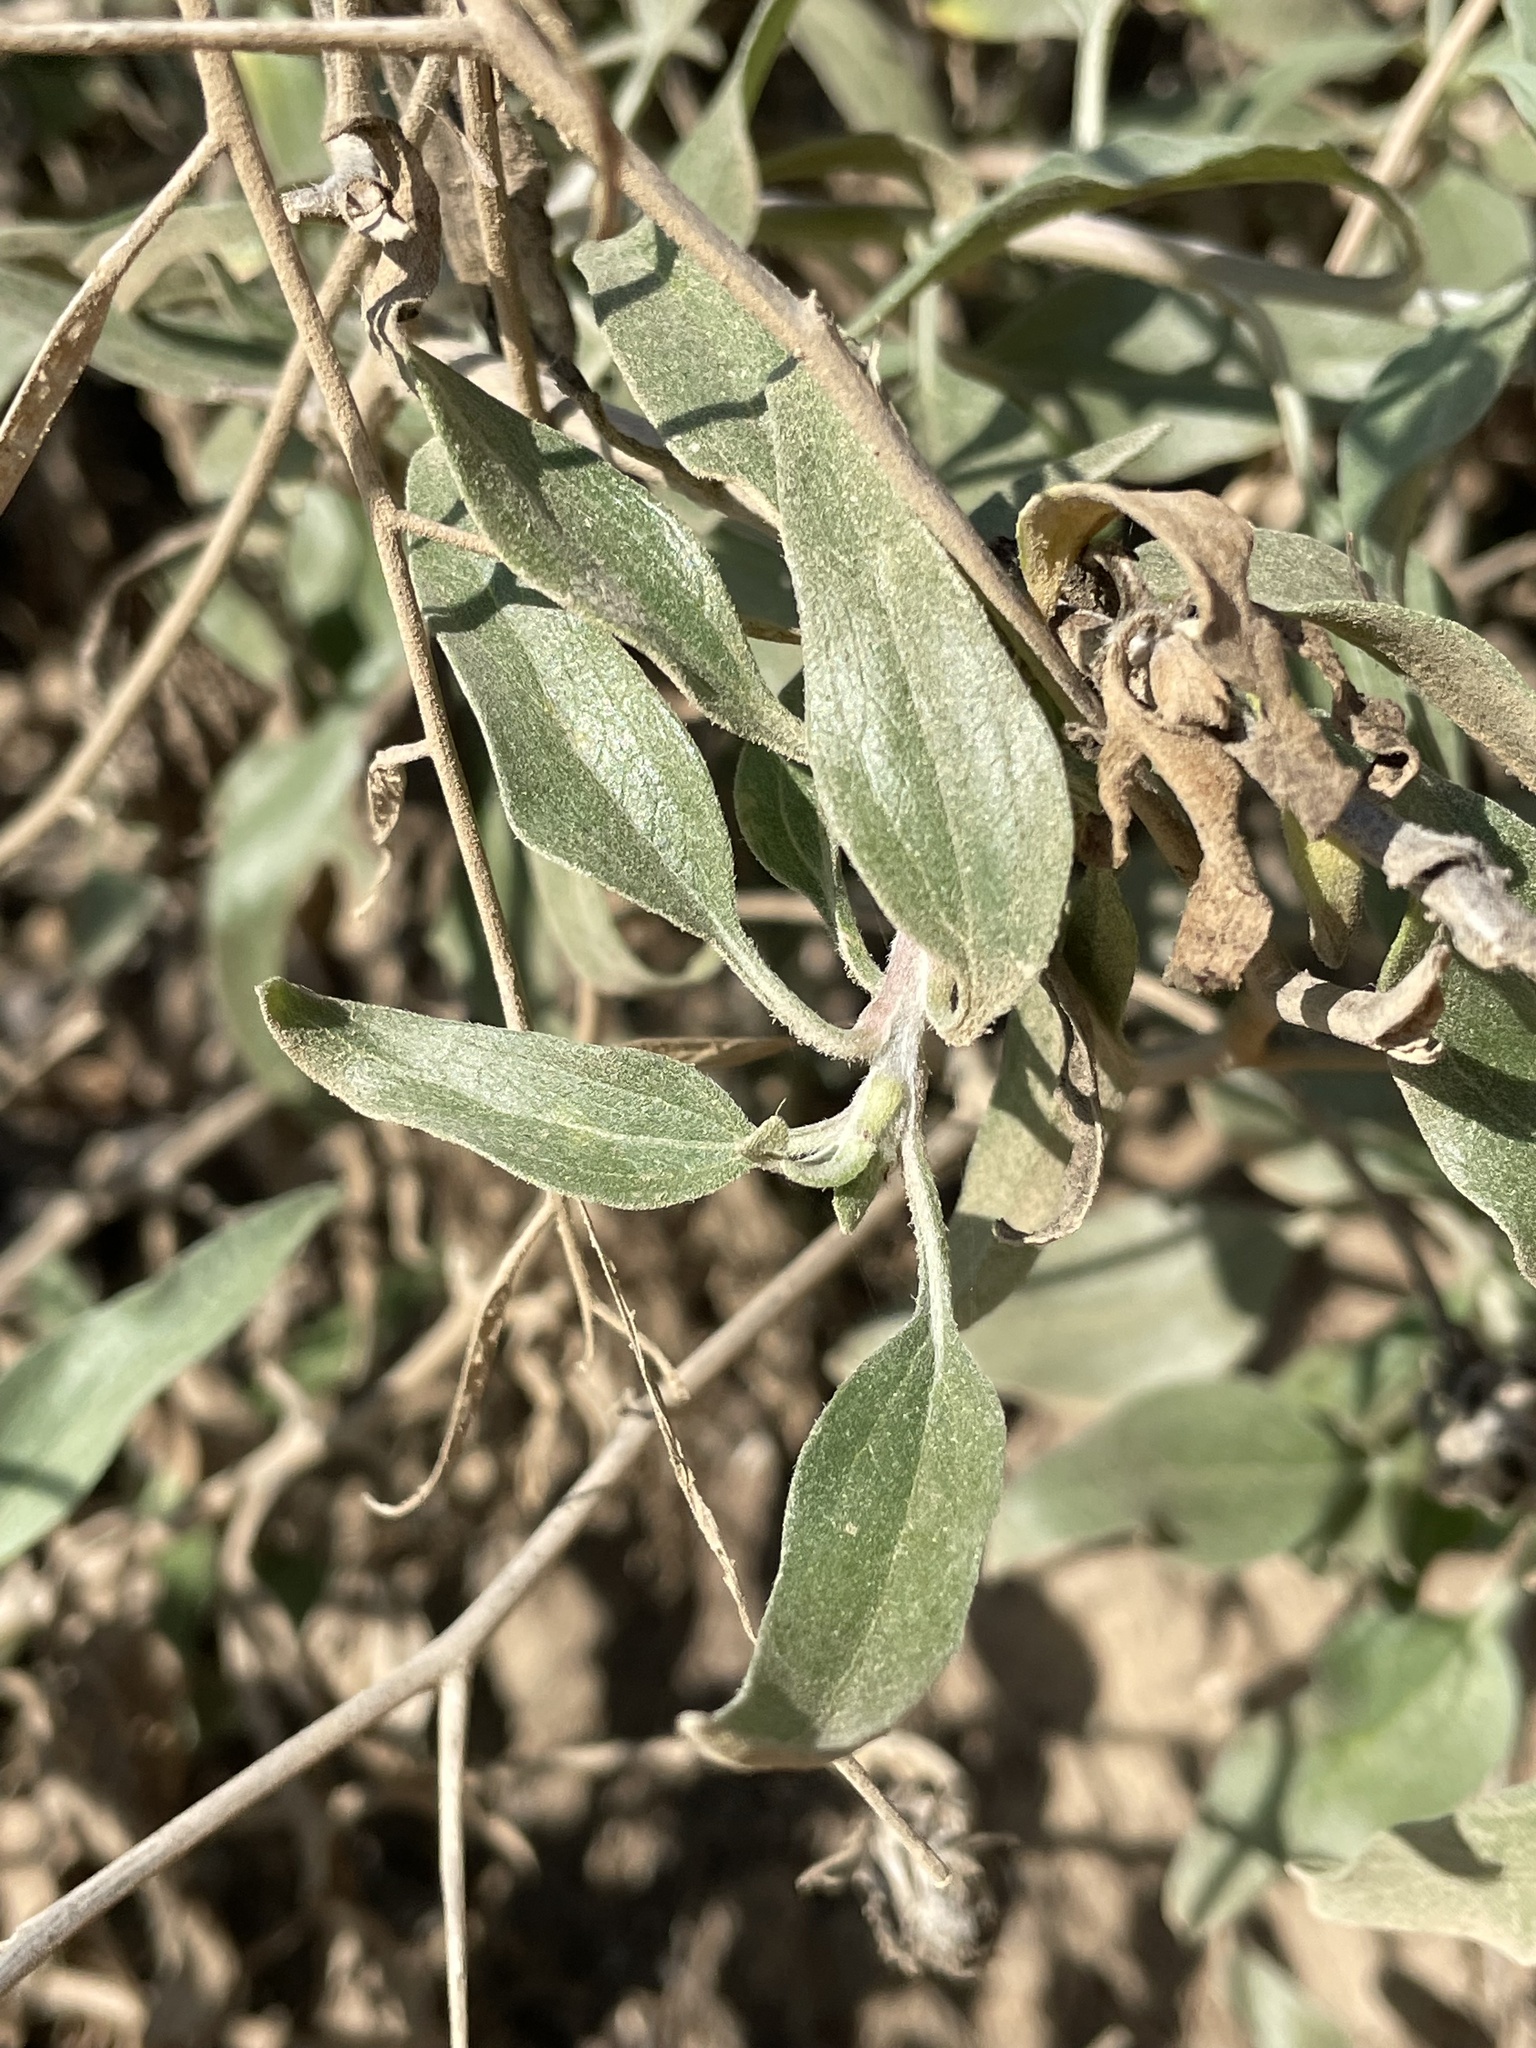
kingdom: Plantae
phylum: Tracheophyta
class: Magnoliopsida
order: Asterales
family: Asteraceae
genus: Encelia
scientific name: Encelia californica
